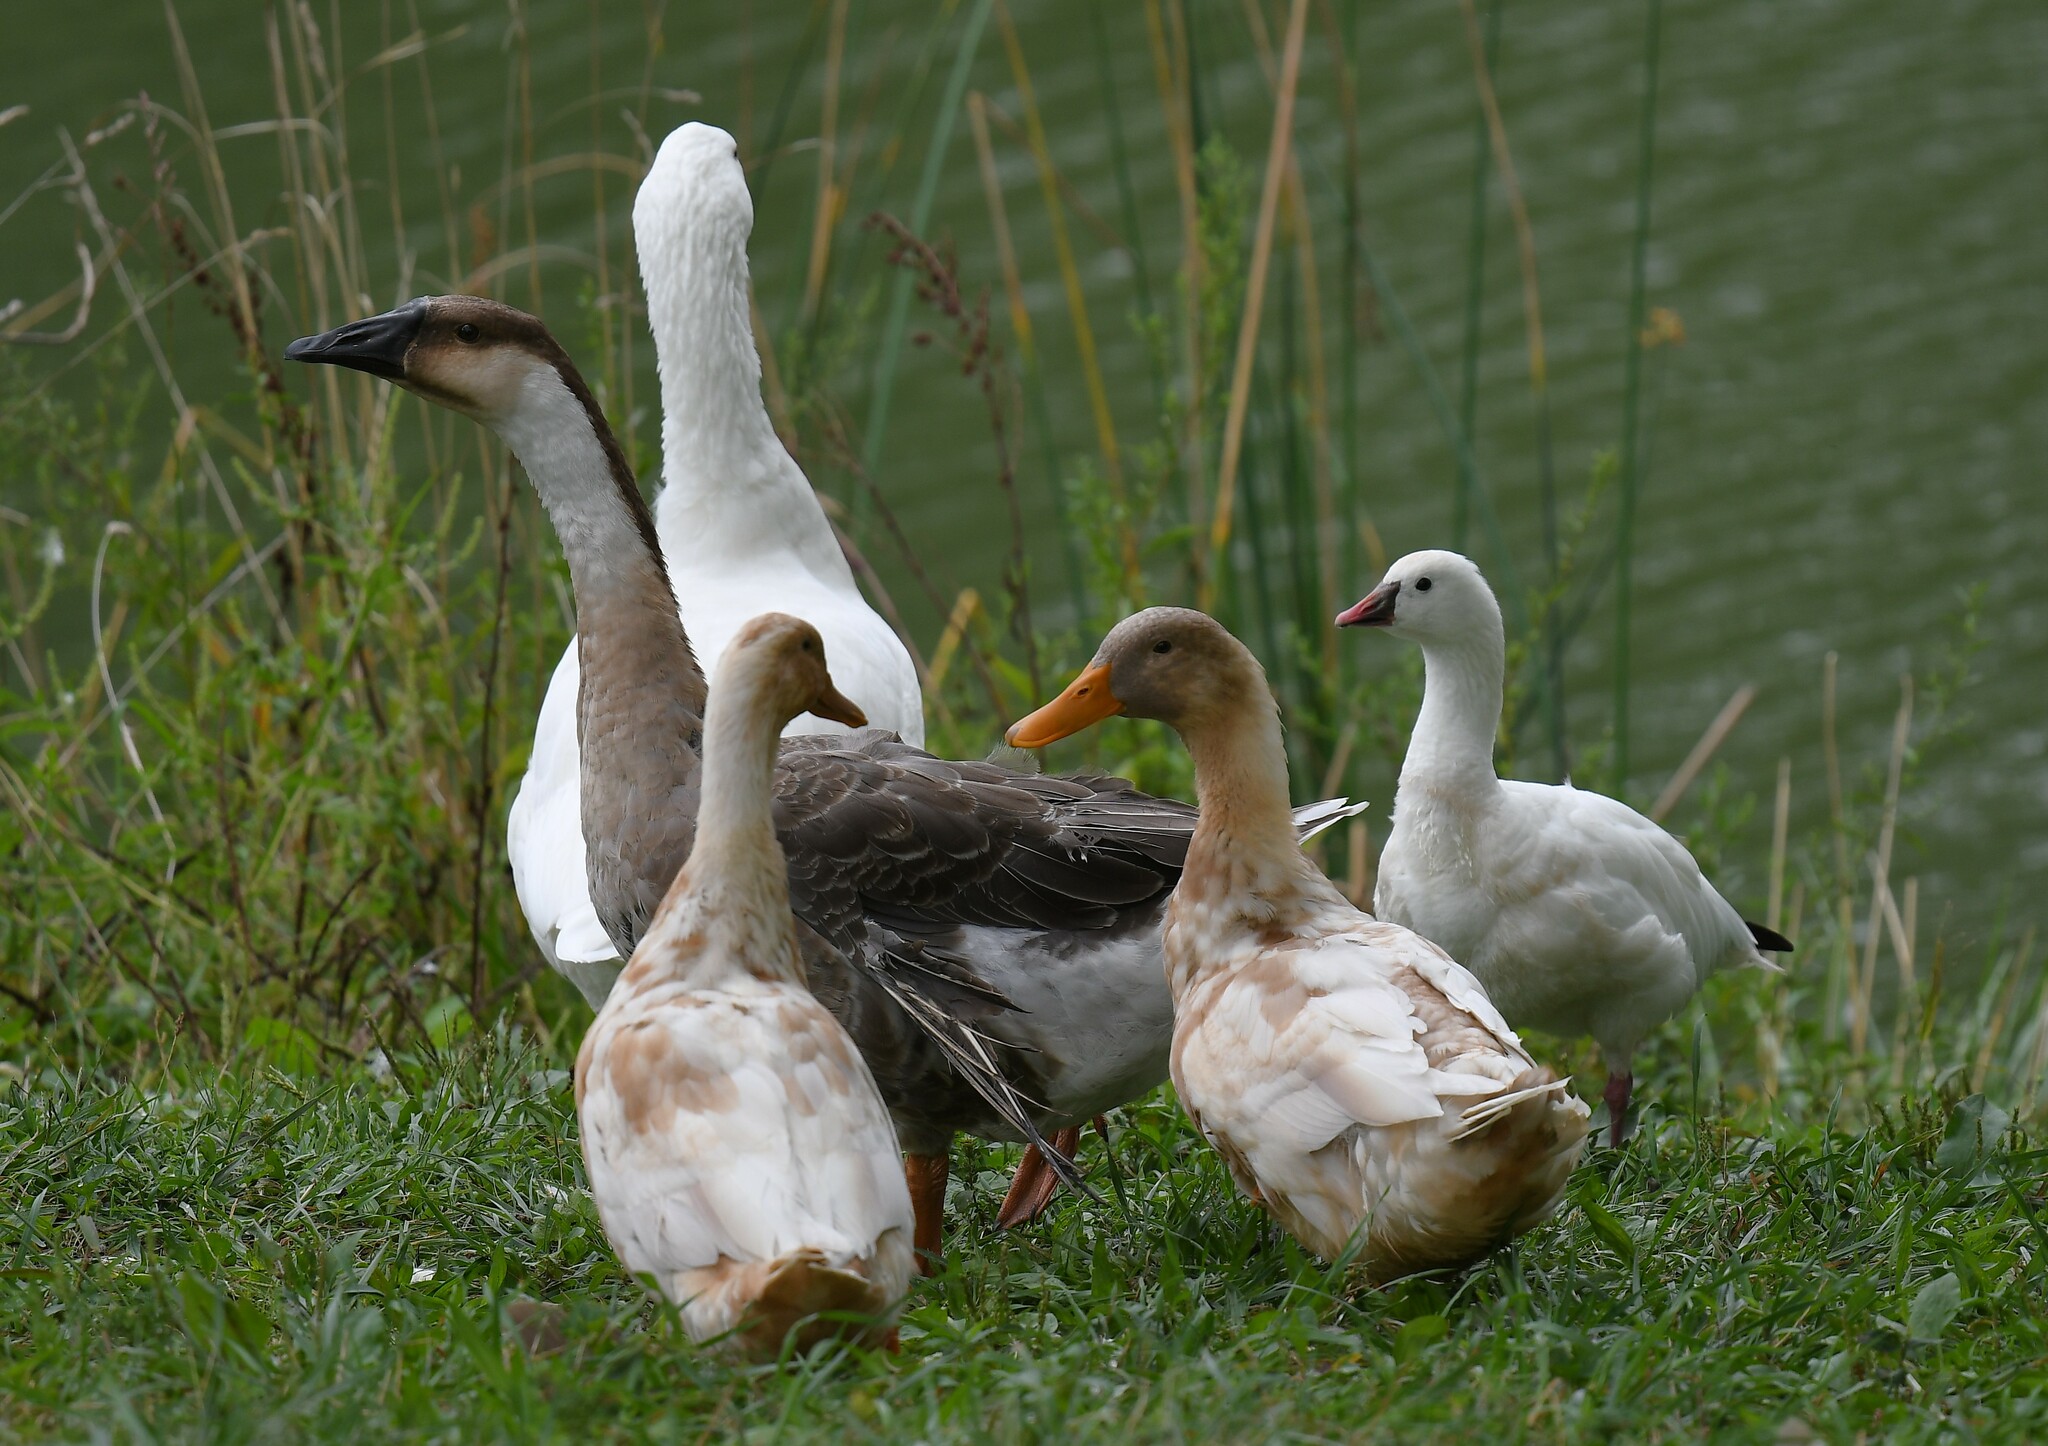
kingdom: Animalia
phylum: Chordata
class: Aves
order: Anseriformes
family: Anatidae
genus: Anser
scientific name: Anser cygnoides
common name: Swan goose
